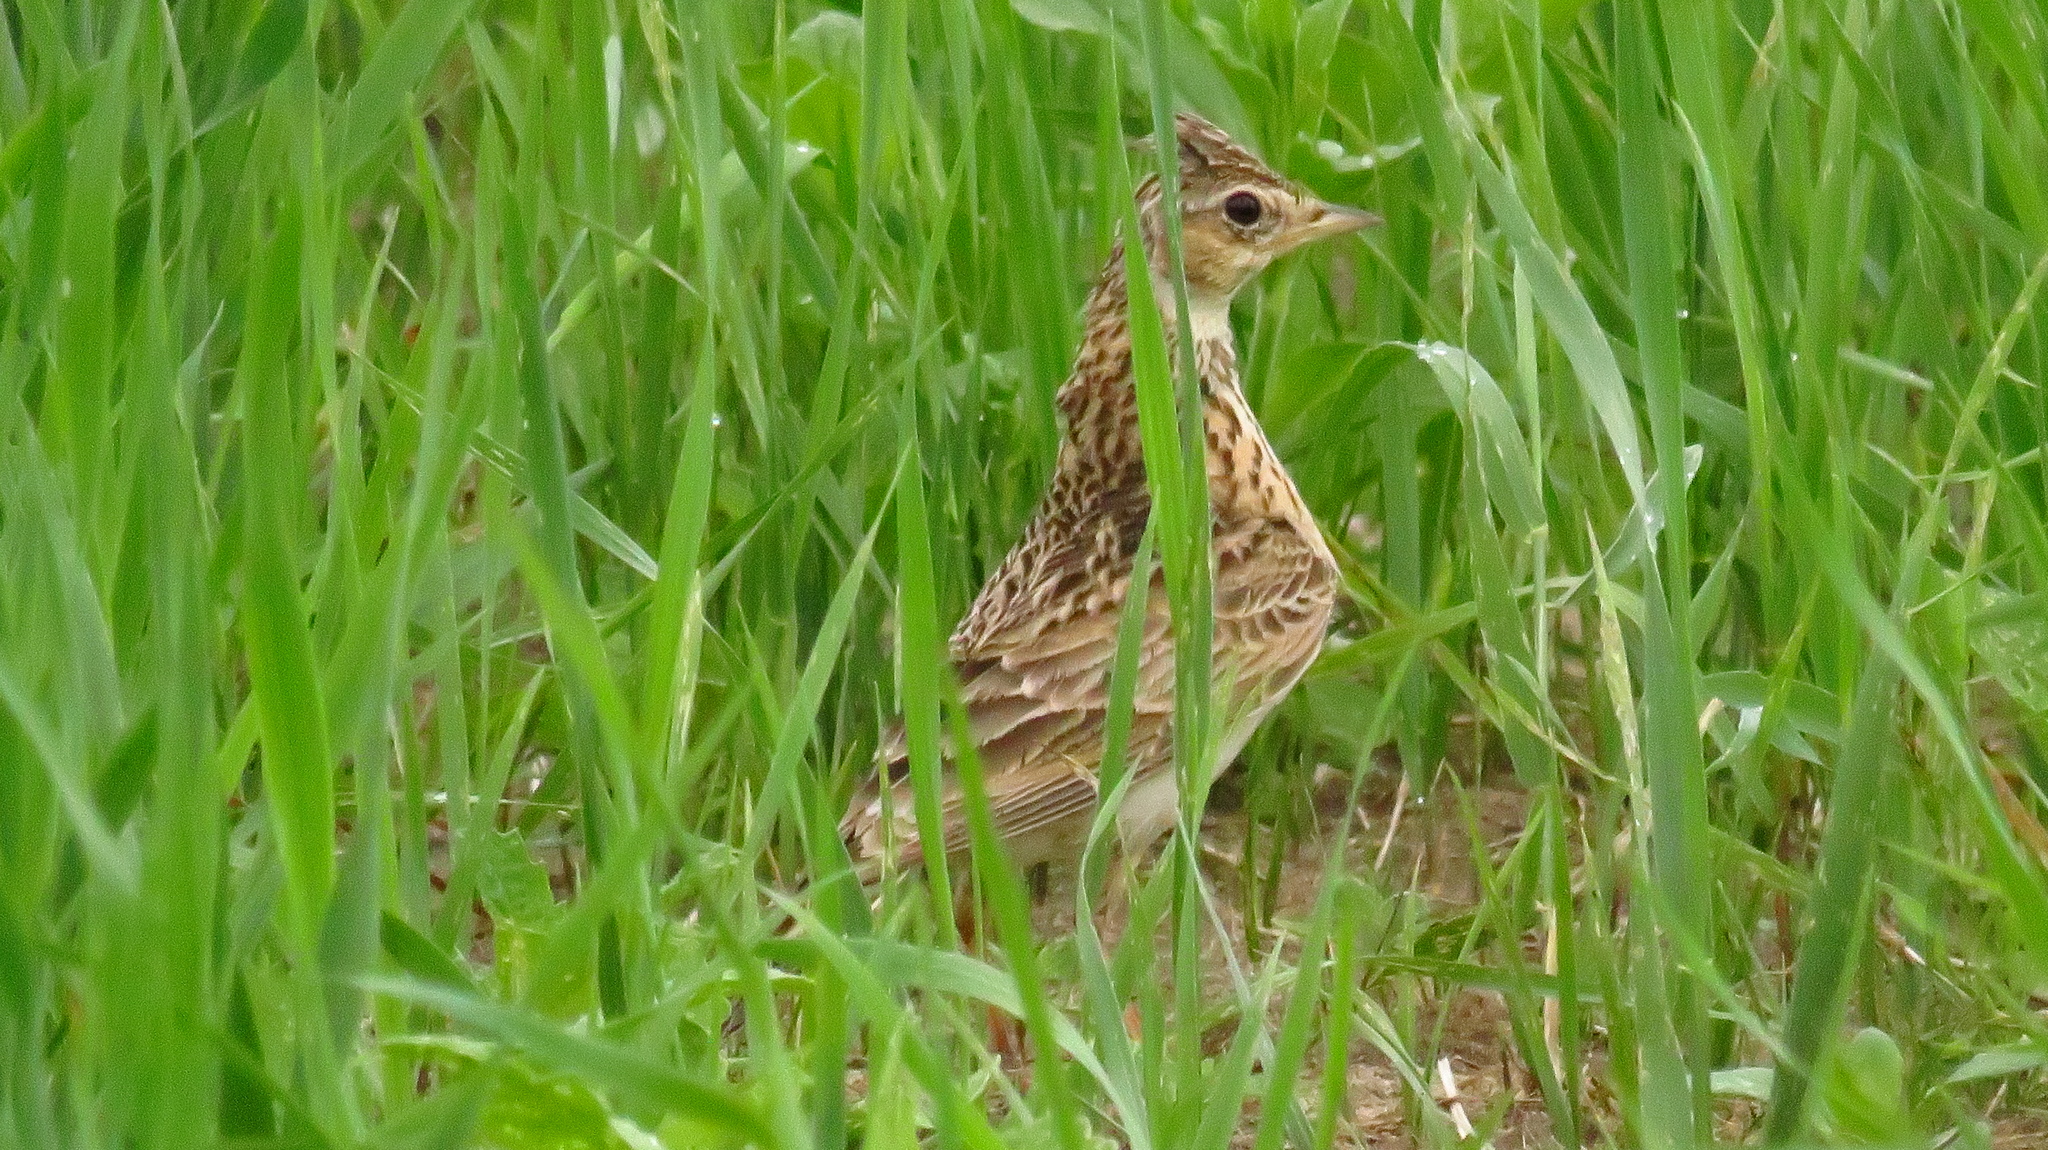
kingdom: Animalia
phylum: Chordata
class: Aves
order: Passeriformes
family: Alaudidae
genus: Alauda
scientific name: Alauda arvensis
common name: Eurasian skylark
